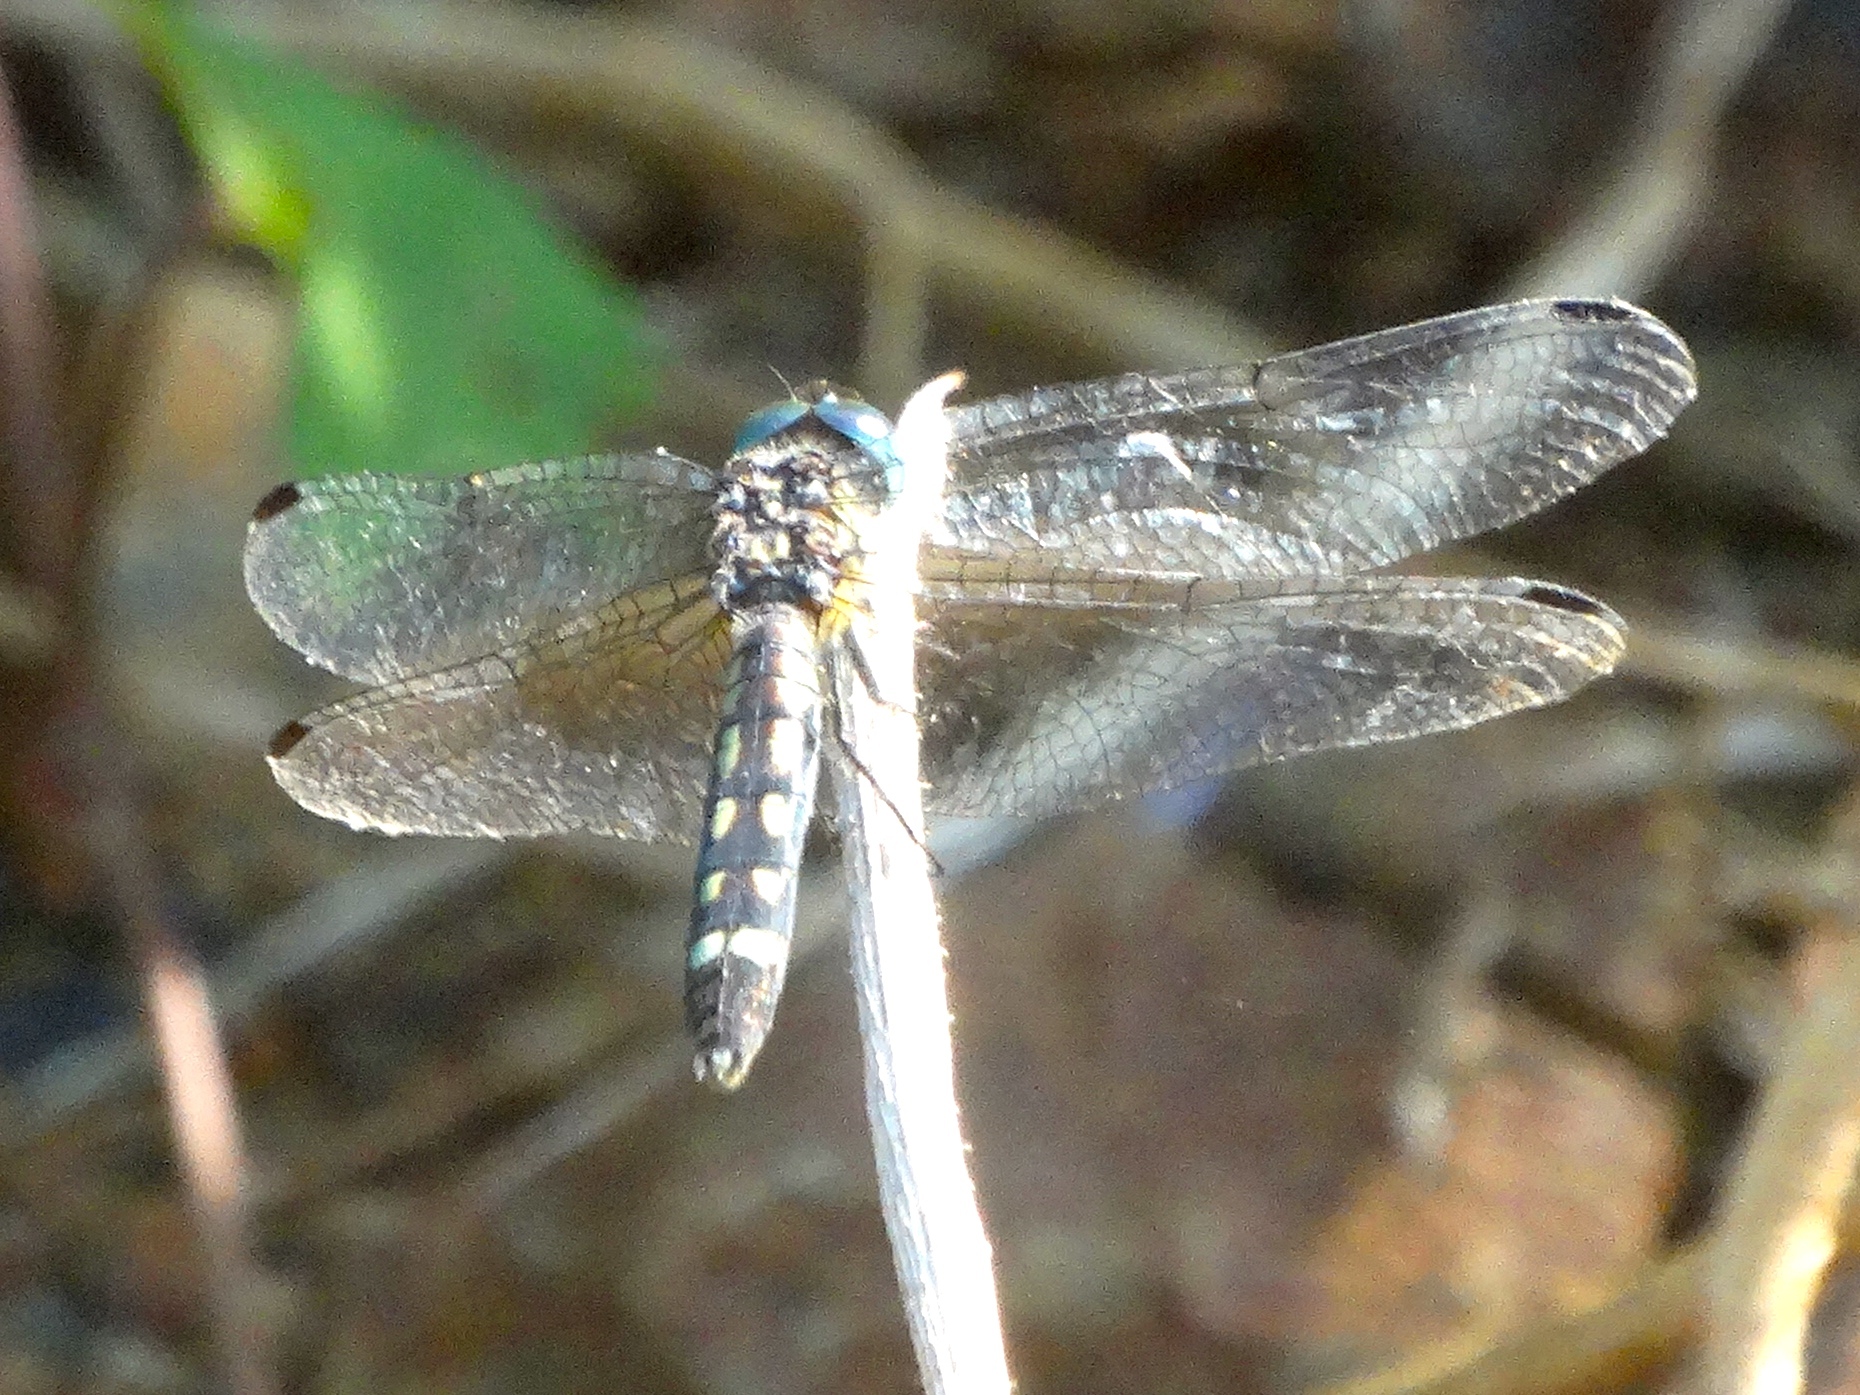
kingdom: Animalia
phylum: Arthropoda
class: Insecta
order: Odonata
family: Libellulidae
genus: Micrathyria
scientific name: Micrathyria
